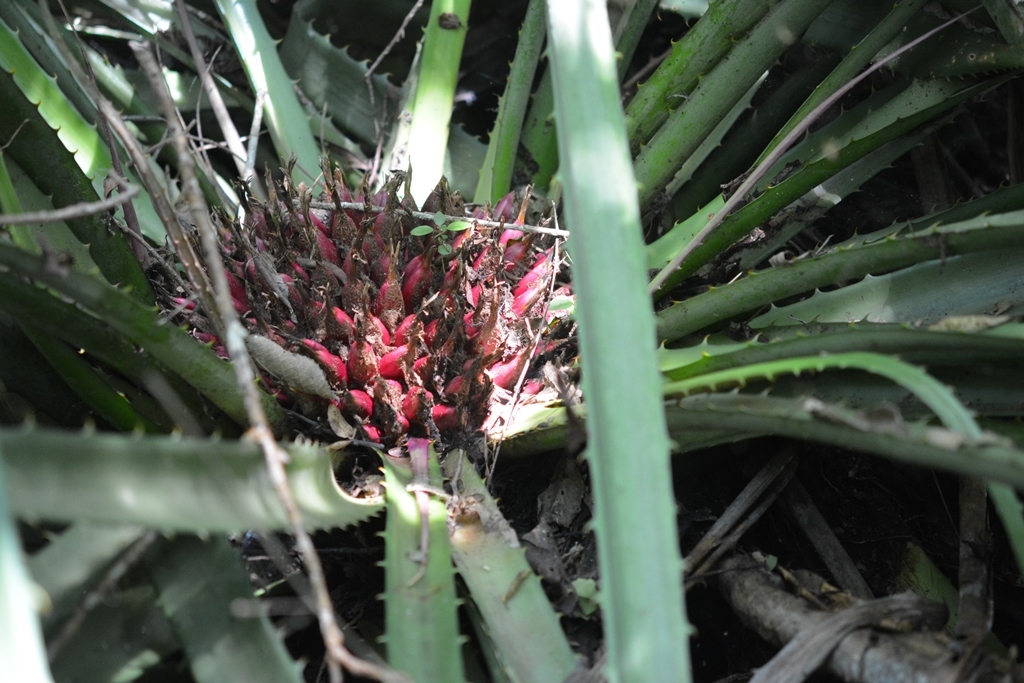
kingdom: Plantae
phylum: Tracheophyta
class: Liliopsida
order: Poales
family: Bromeliaceae
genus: Bromelia
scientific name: Bromelia karatas
